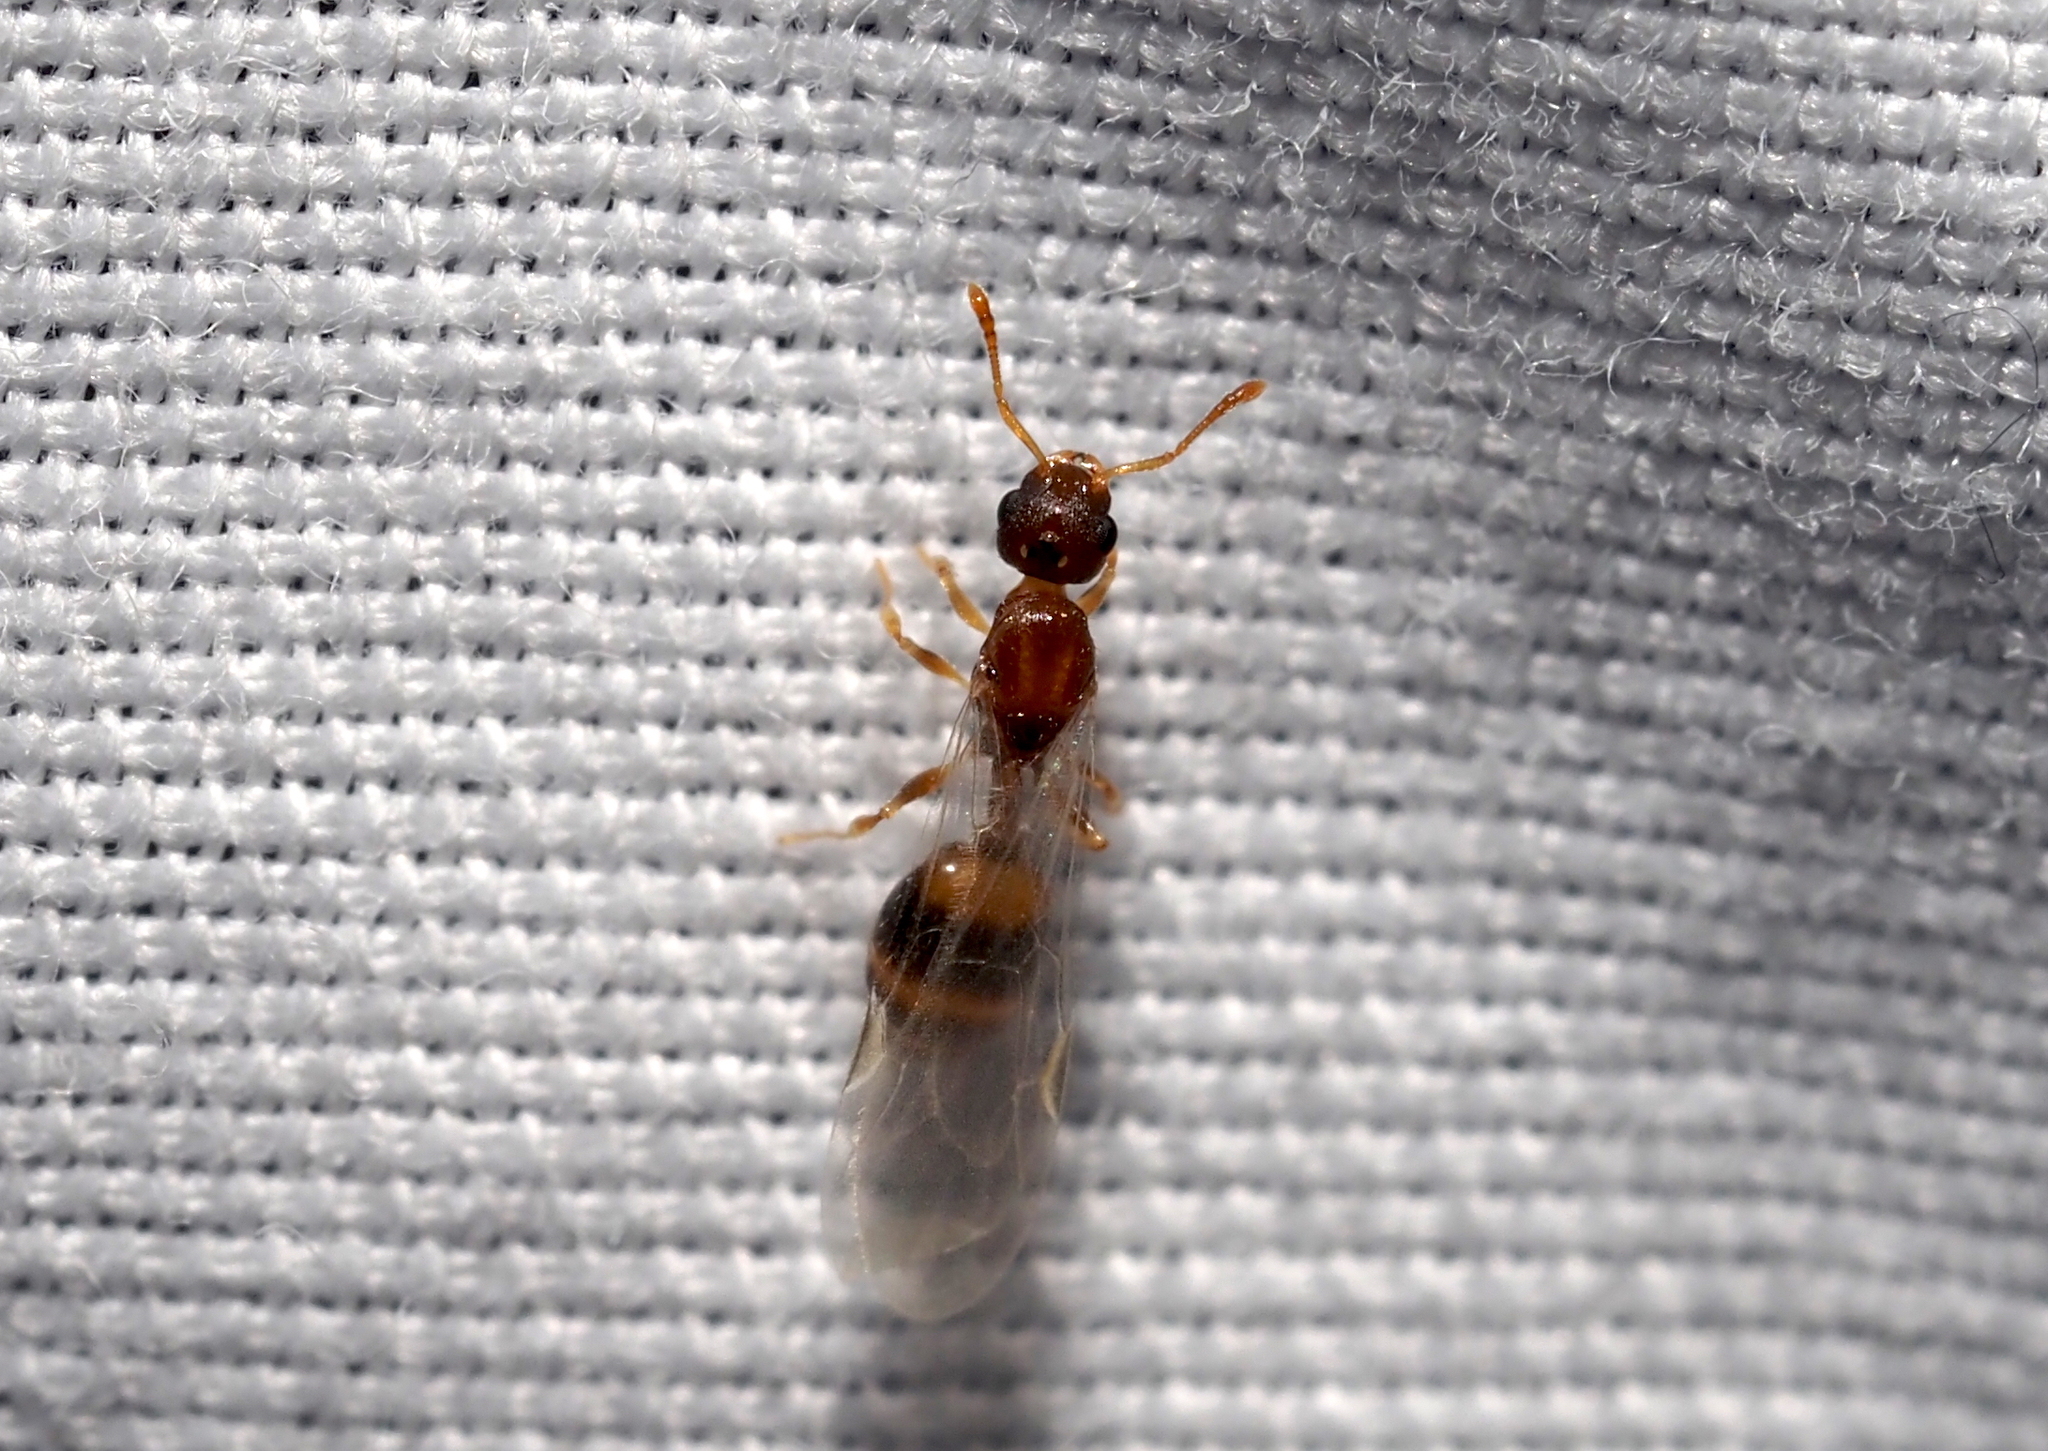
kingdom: Animalia
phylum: Arthropoda
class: Insecta
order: Hymenoptera
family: Formicidae
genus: Temnothorax
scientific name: Temnothorax curvispinosus
